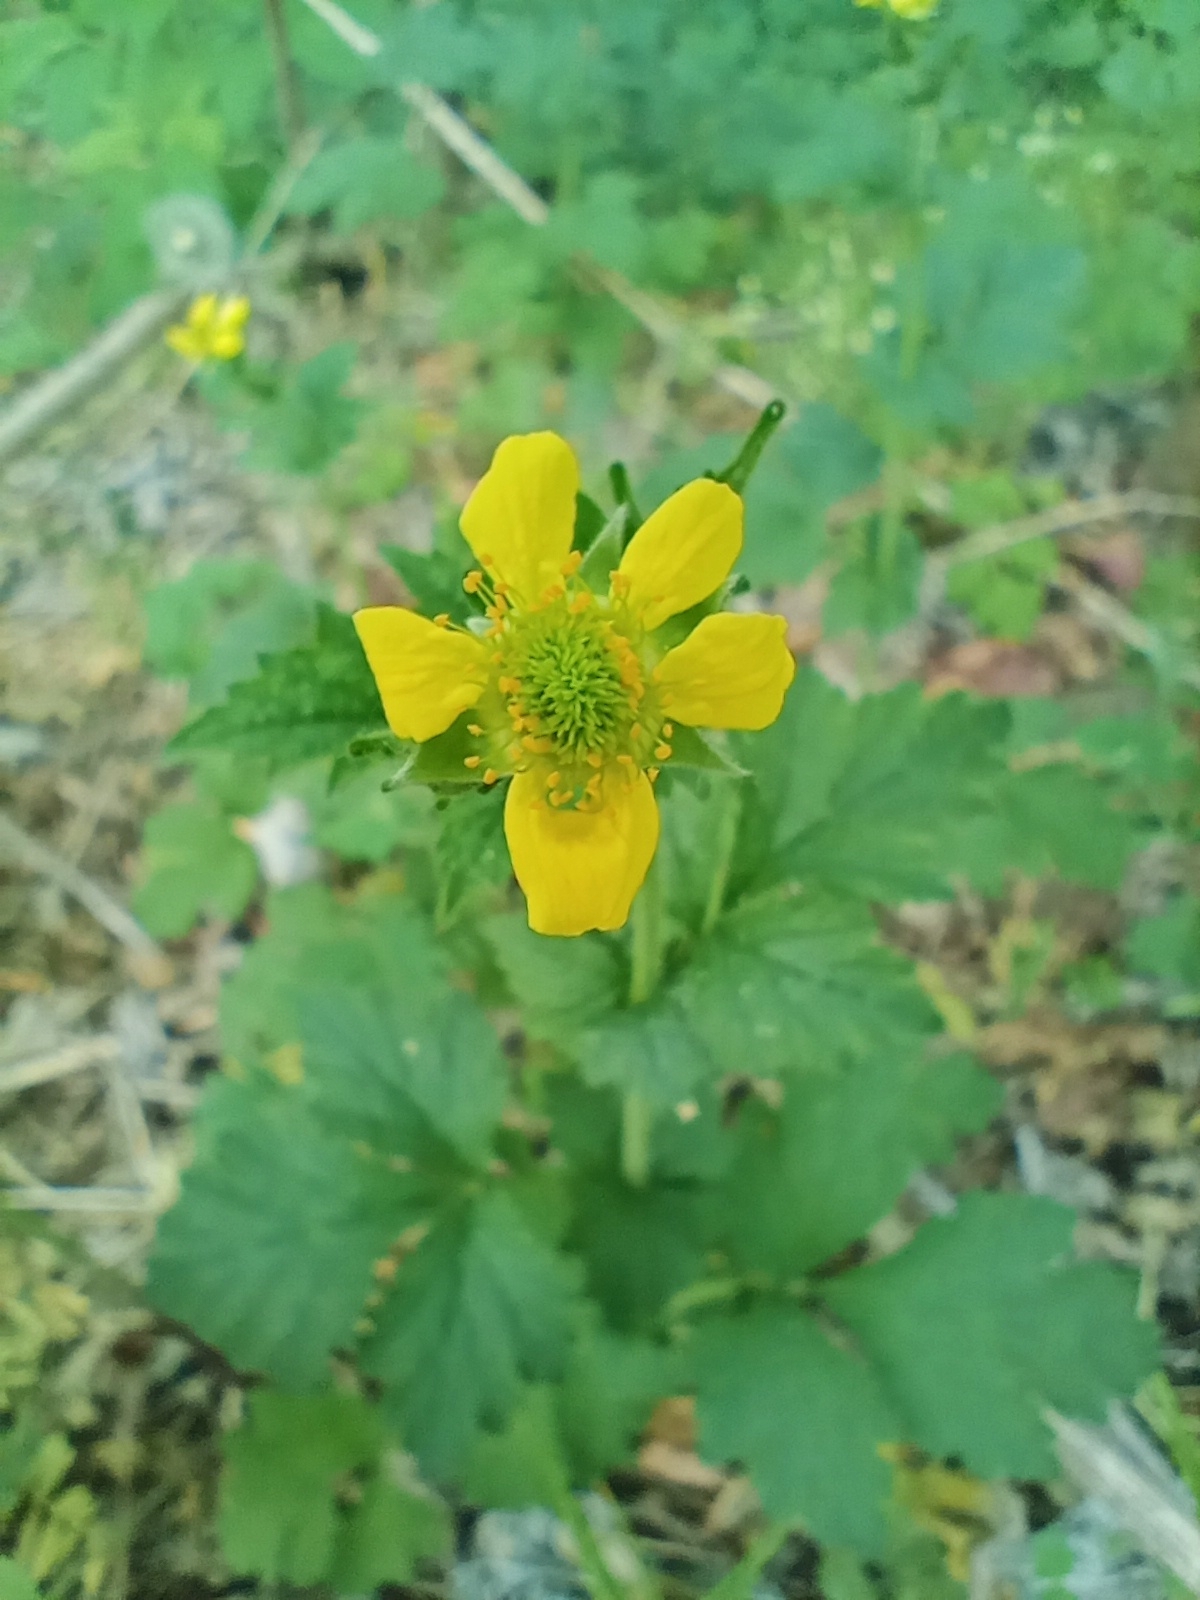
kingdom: Plantae
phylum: Tracheophyta
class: Magnoliopsida
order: Rosales
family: Rosaceae
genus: Geum
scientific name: Geum urbanum
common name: Wood avens
